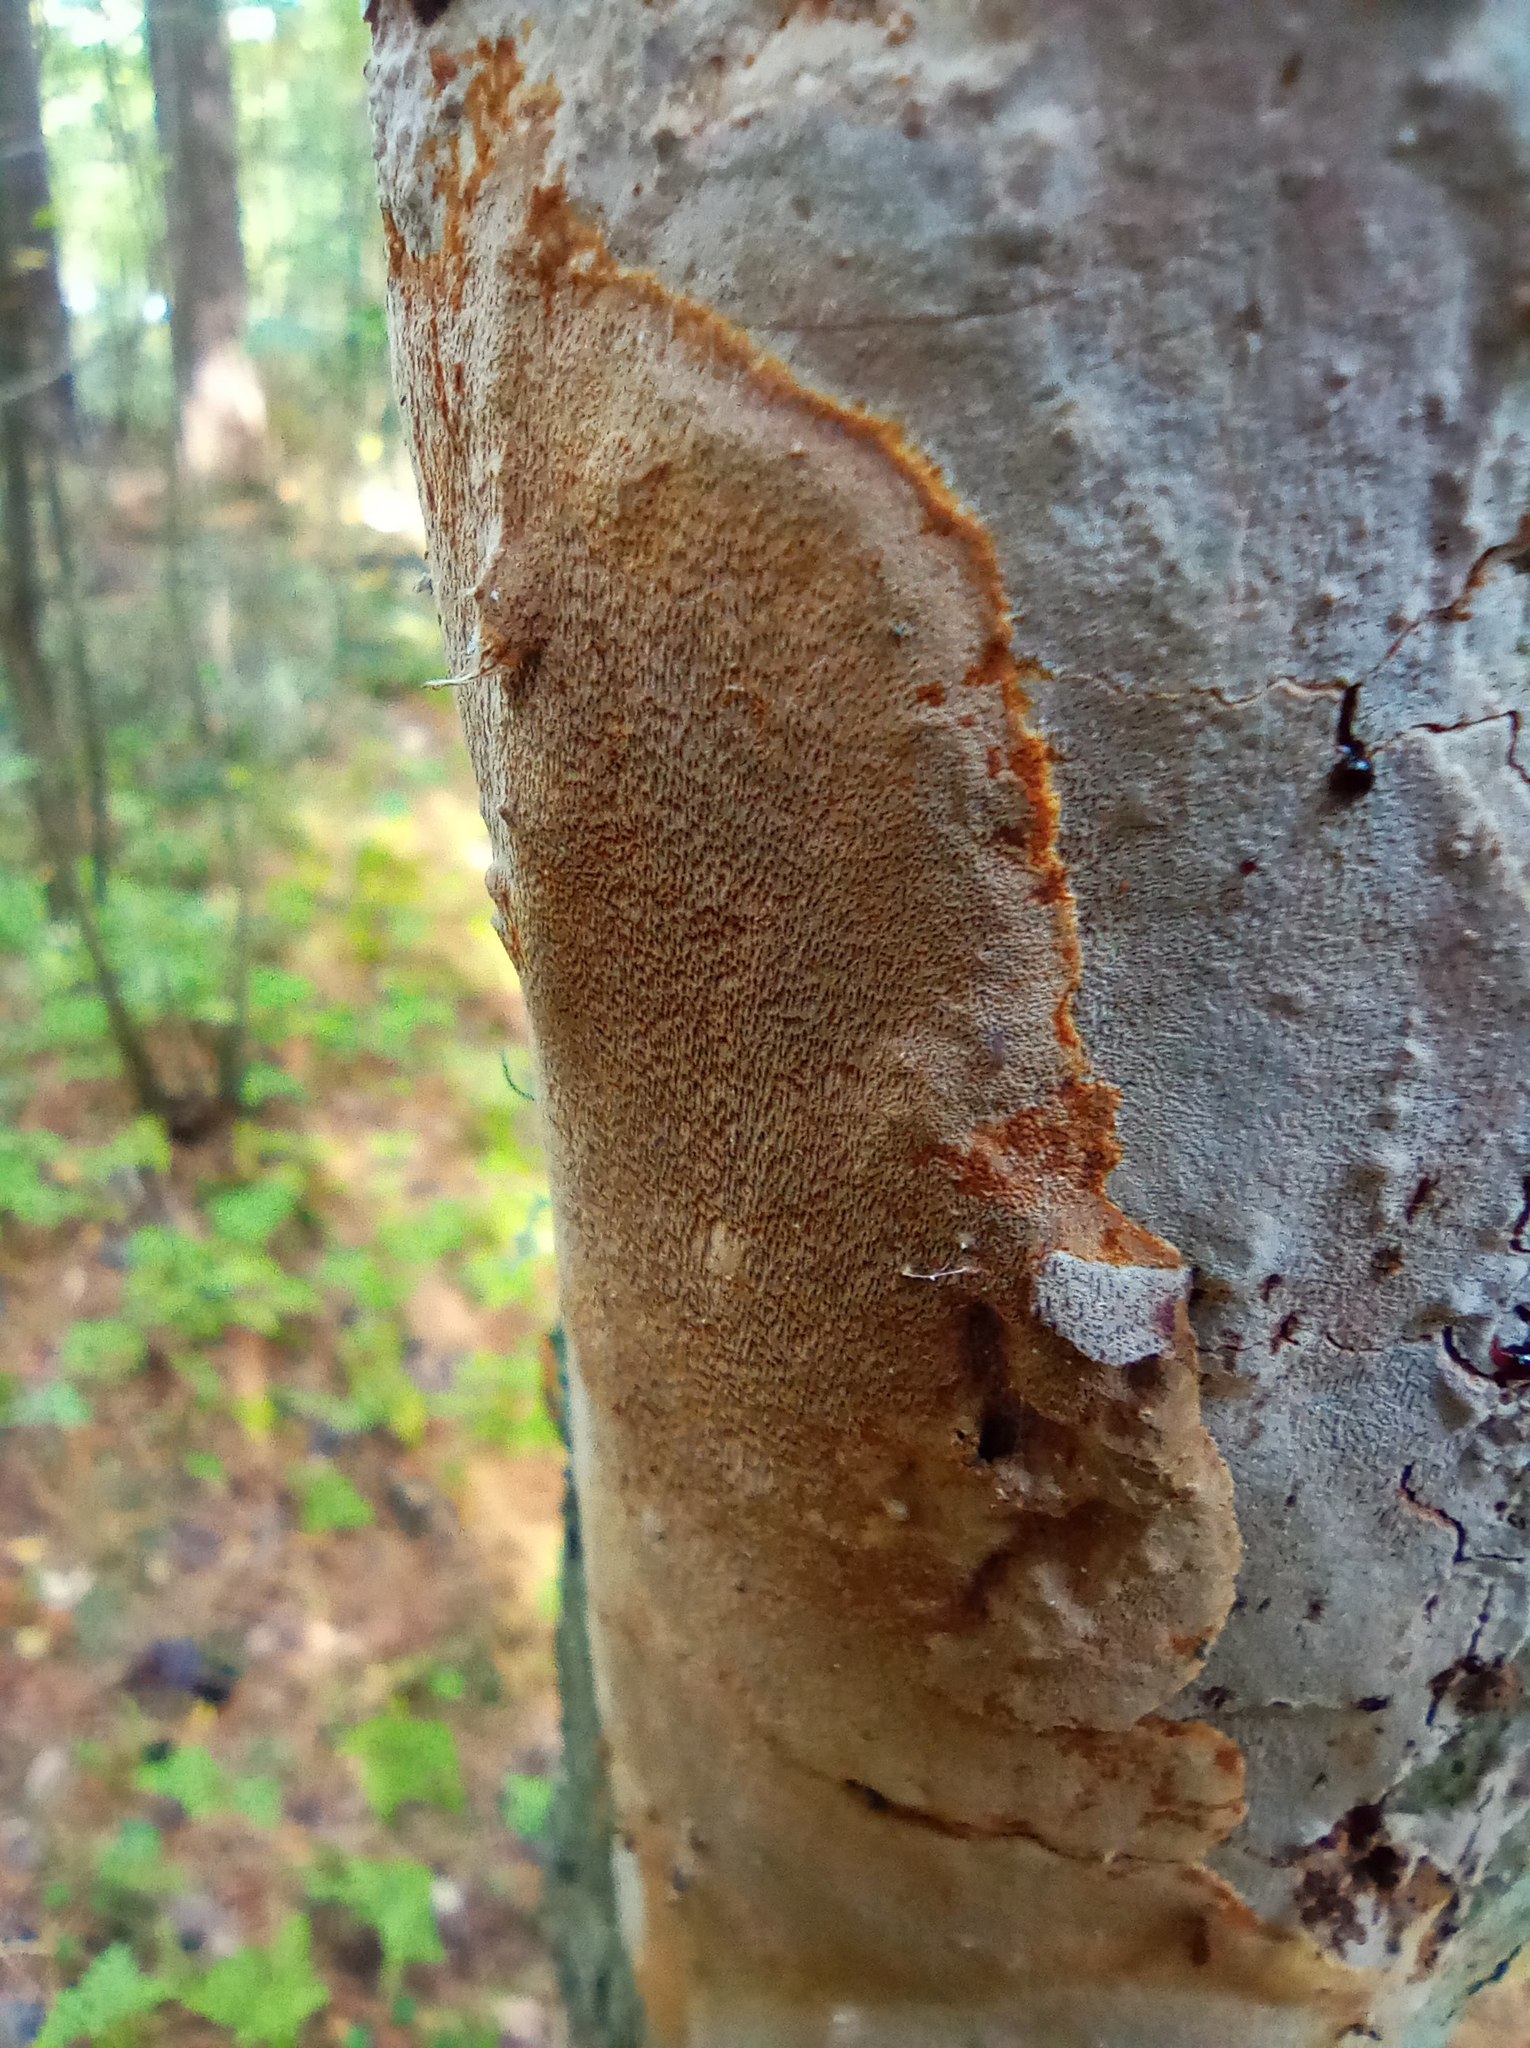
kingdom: Fungi
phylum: Basidiomycota
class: Agaricomycetes
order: Hymenochaetales
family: Hymenochaetaceae
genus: Fomitiporia
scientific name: Fomitiporia punctata
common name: Elbowpatch crust
